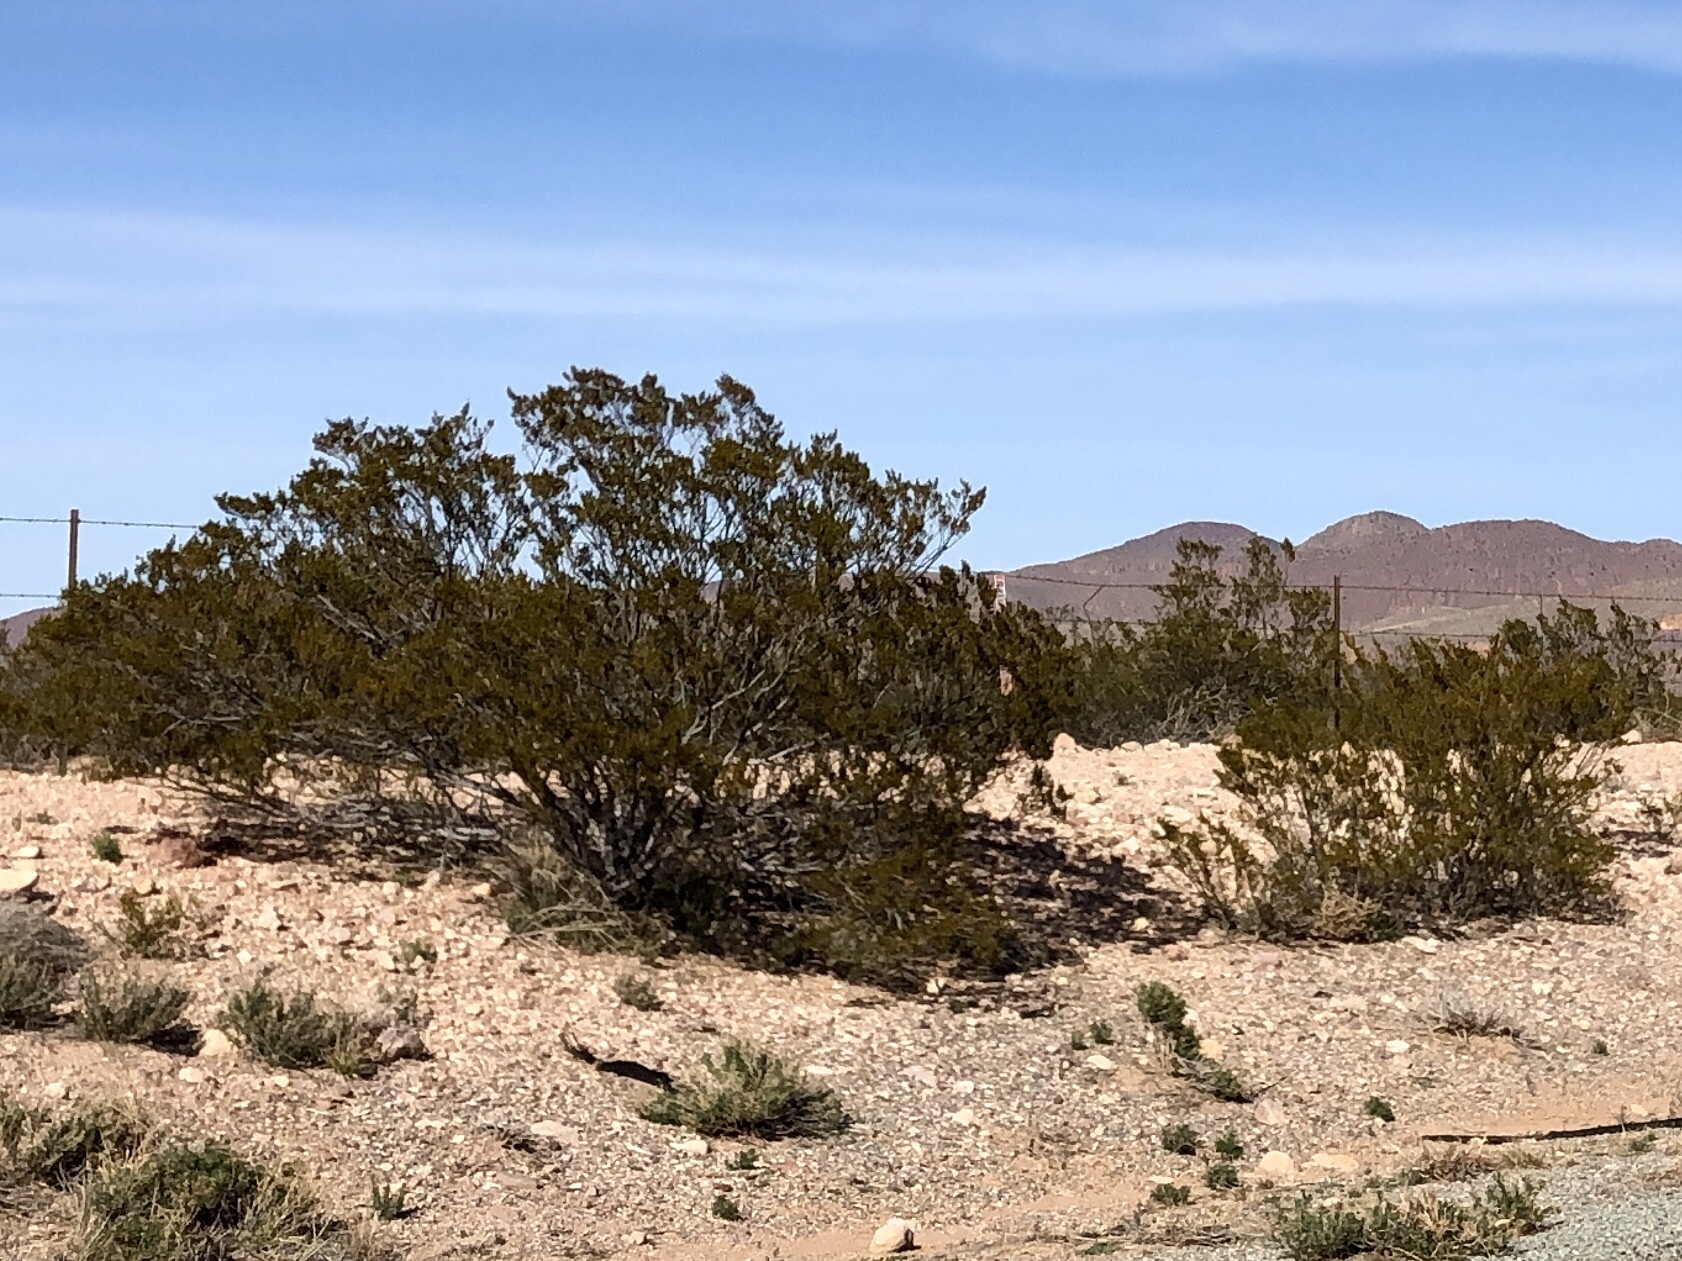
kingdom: Plantae
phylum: Tracheophyta
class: Magnoliopsida
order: Zygophyllales
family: Zygophyllaceae
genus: Larrea
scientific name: Larrea tridentata
